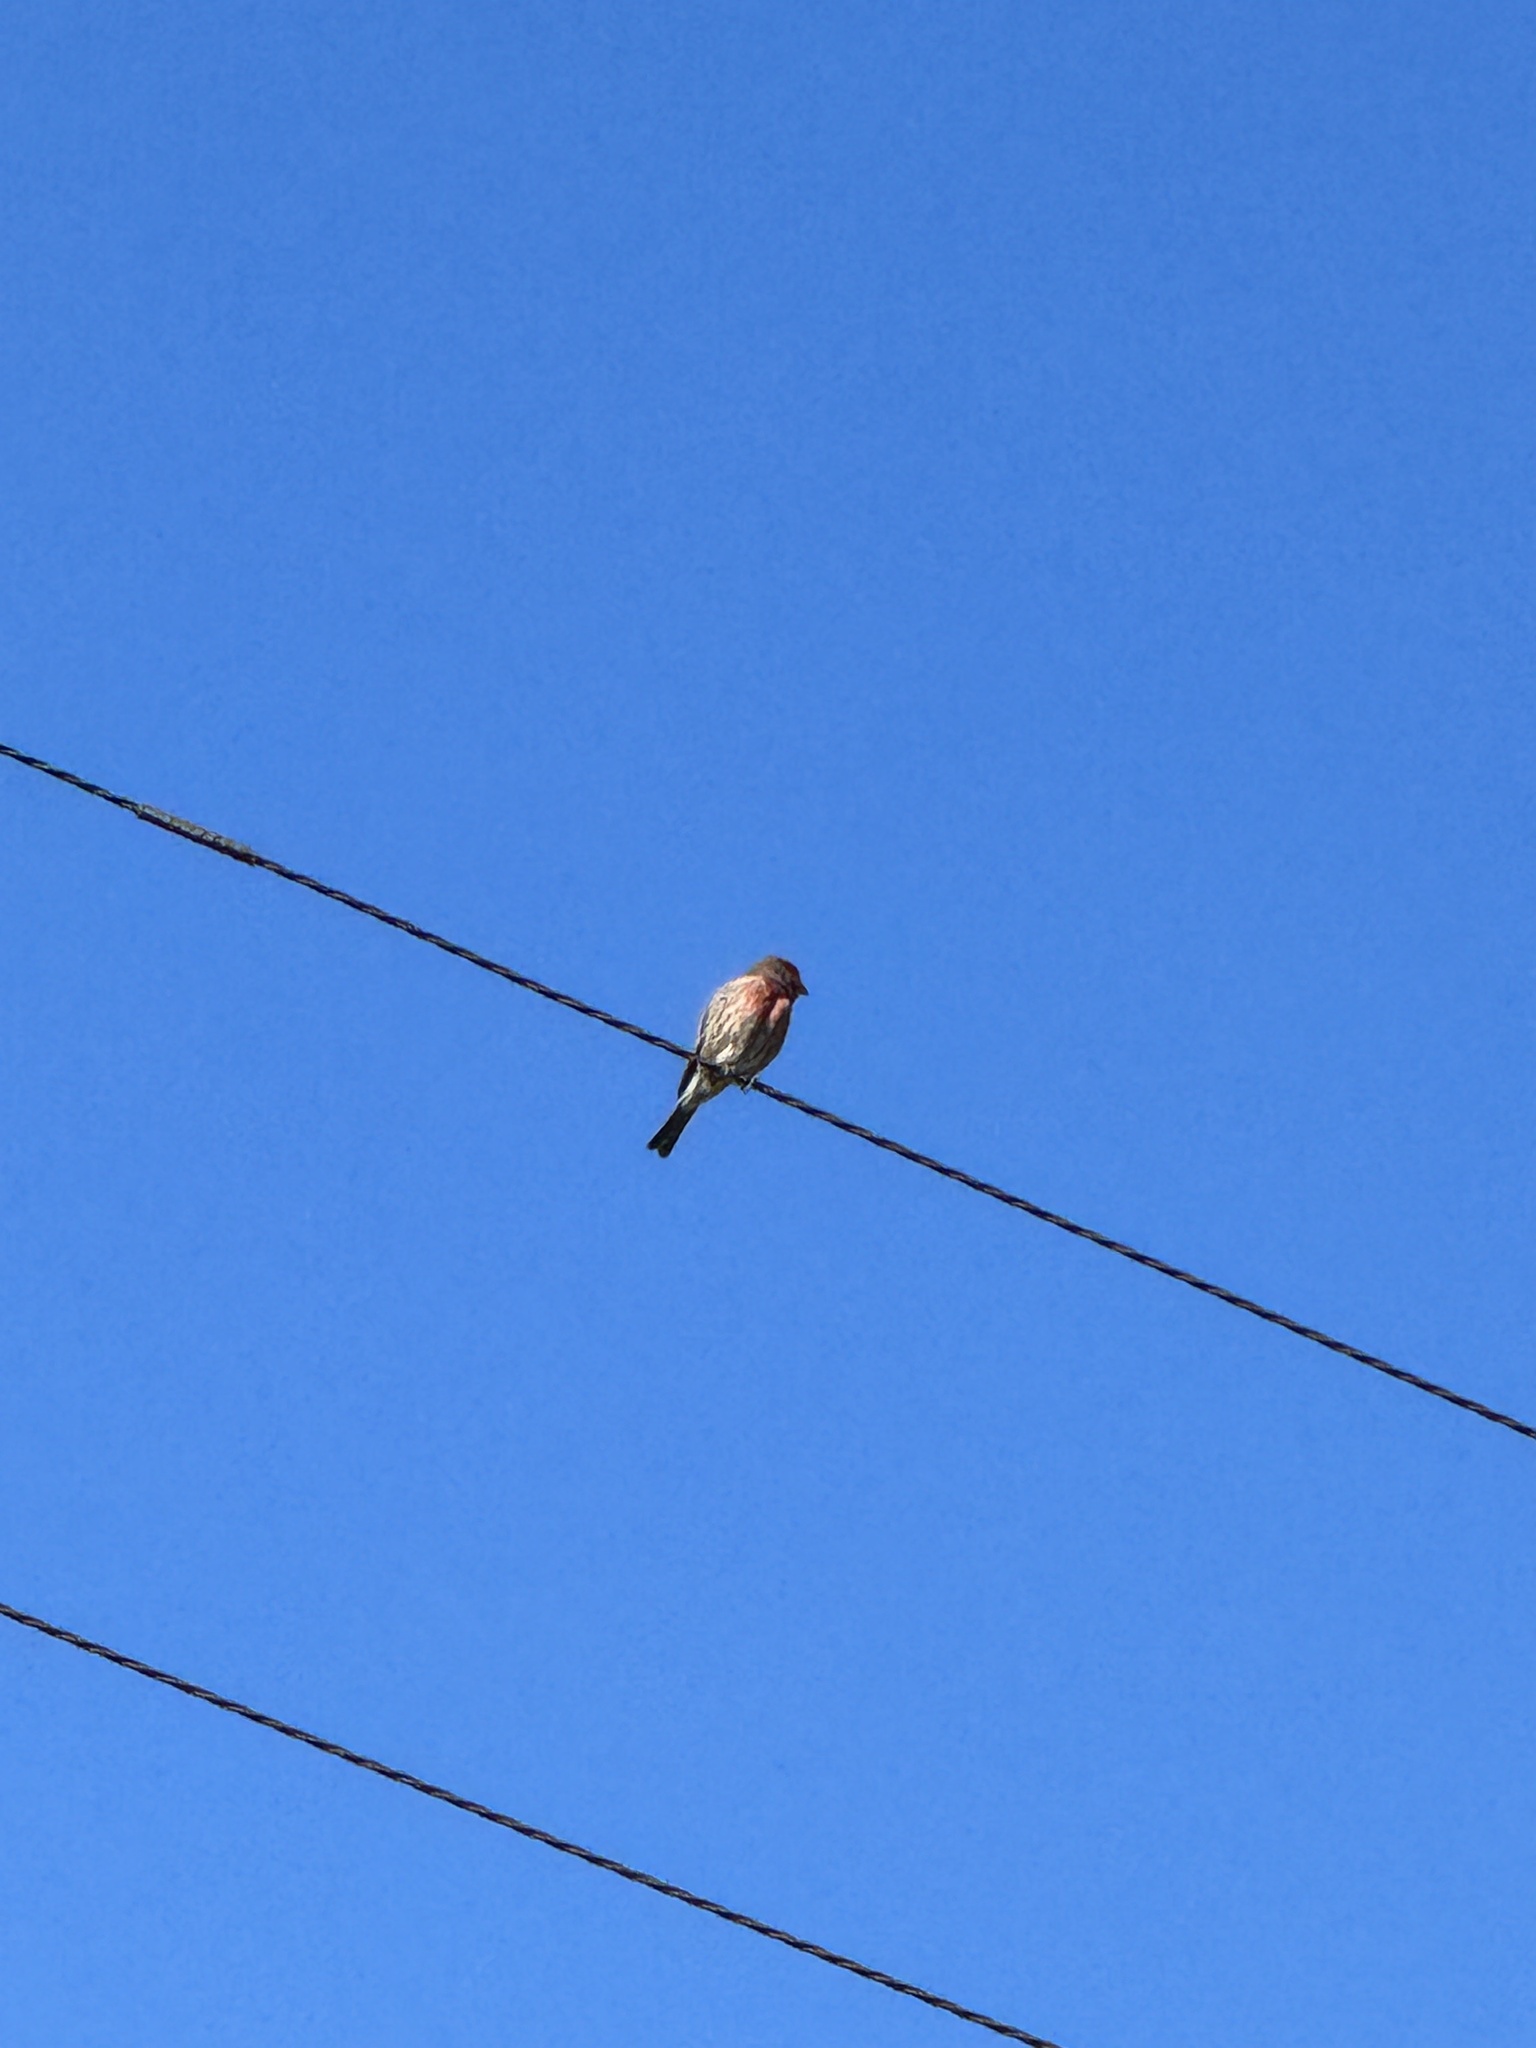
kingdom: Animalia
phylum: Chordata
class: Aves
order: Passeriformes
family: Fringillidae
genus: Haemorhous
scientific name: Haemorhous mexicanus
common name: House finch
